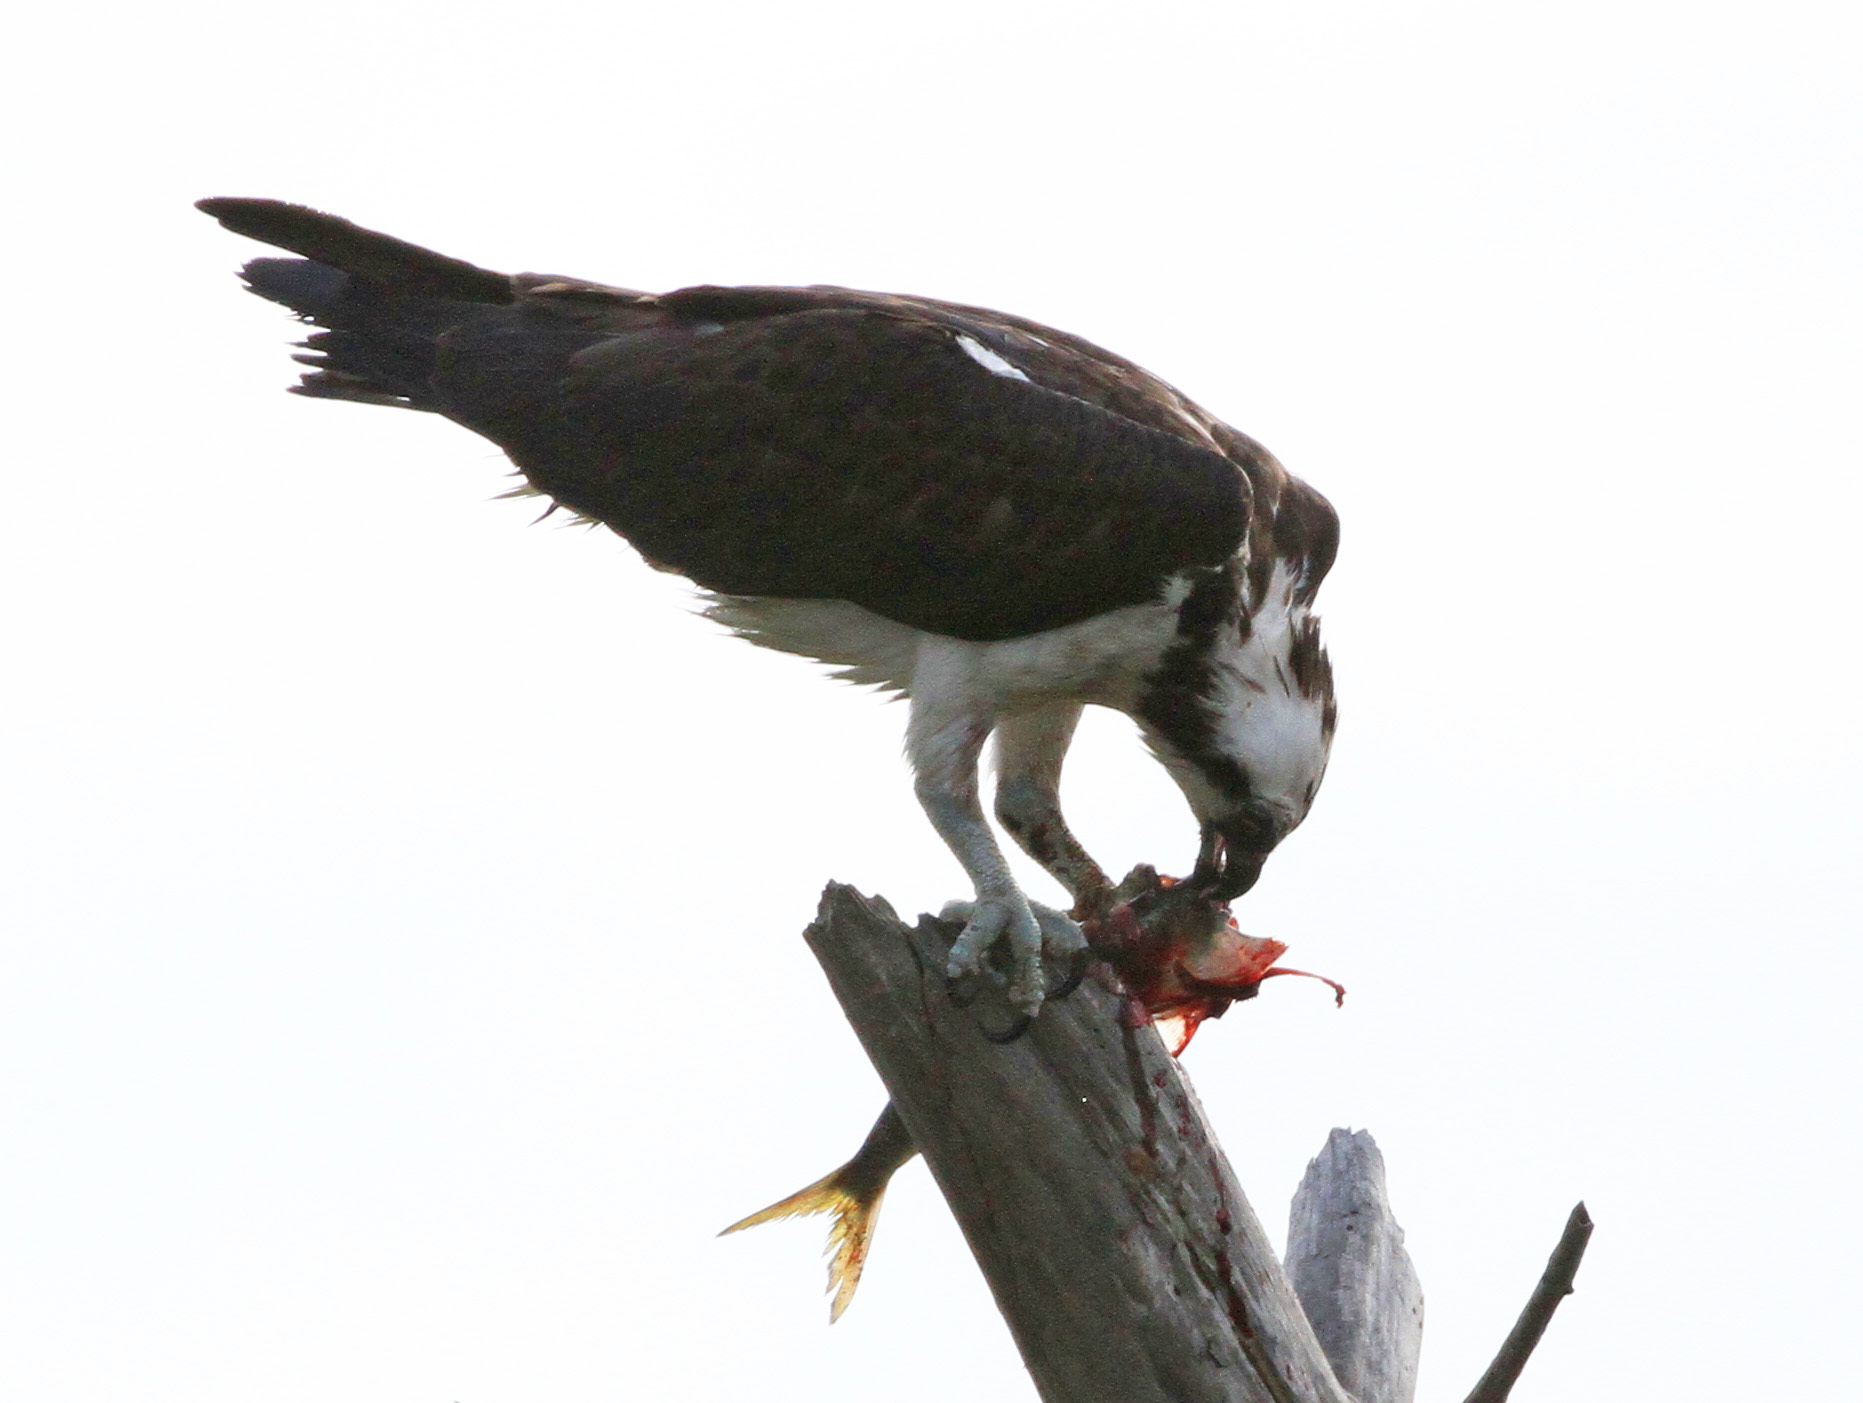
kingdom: Animalia
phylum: Chordata
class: Aves
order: Accipitriformes
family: Pandionidae
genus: Pandion
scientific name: Pandion haliaetus
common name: Osprey
